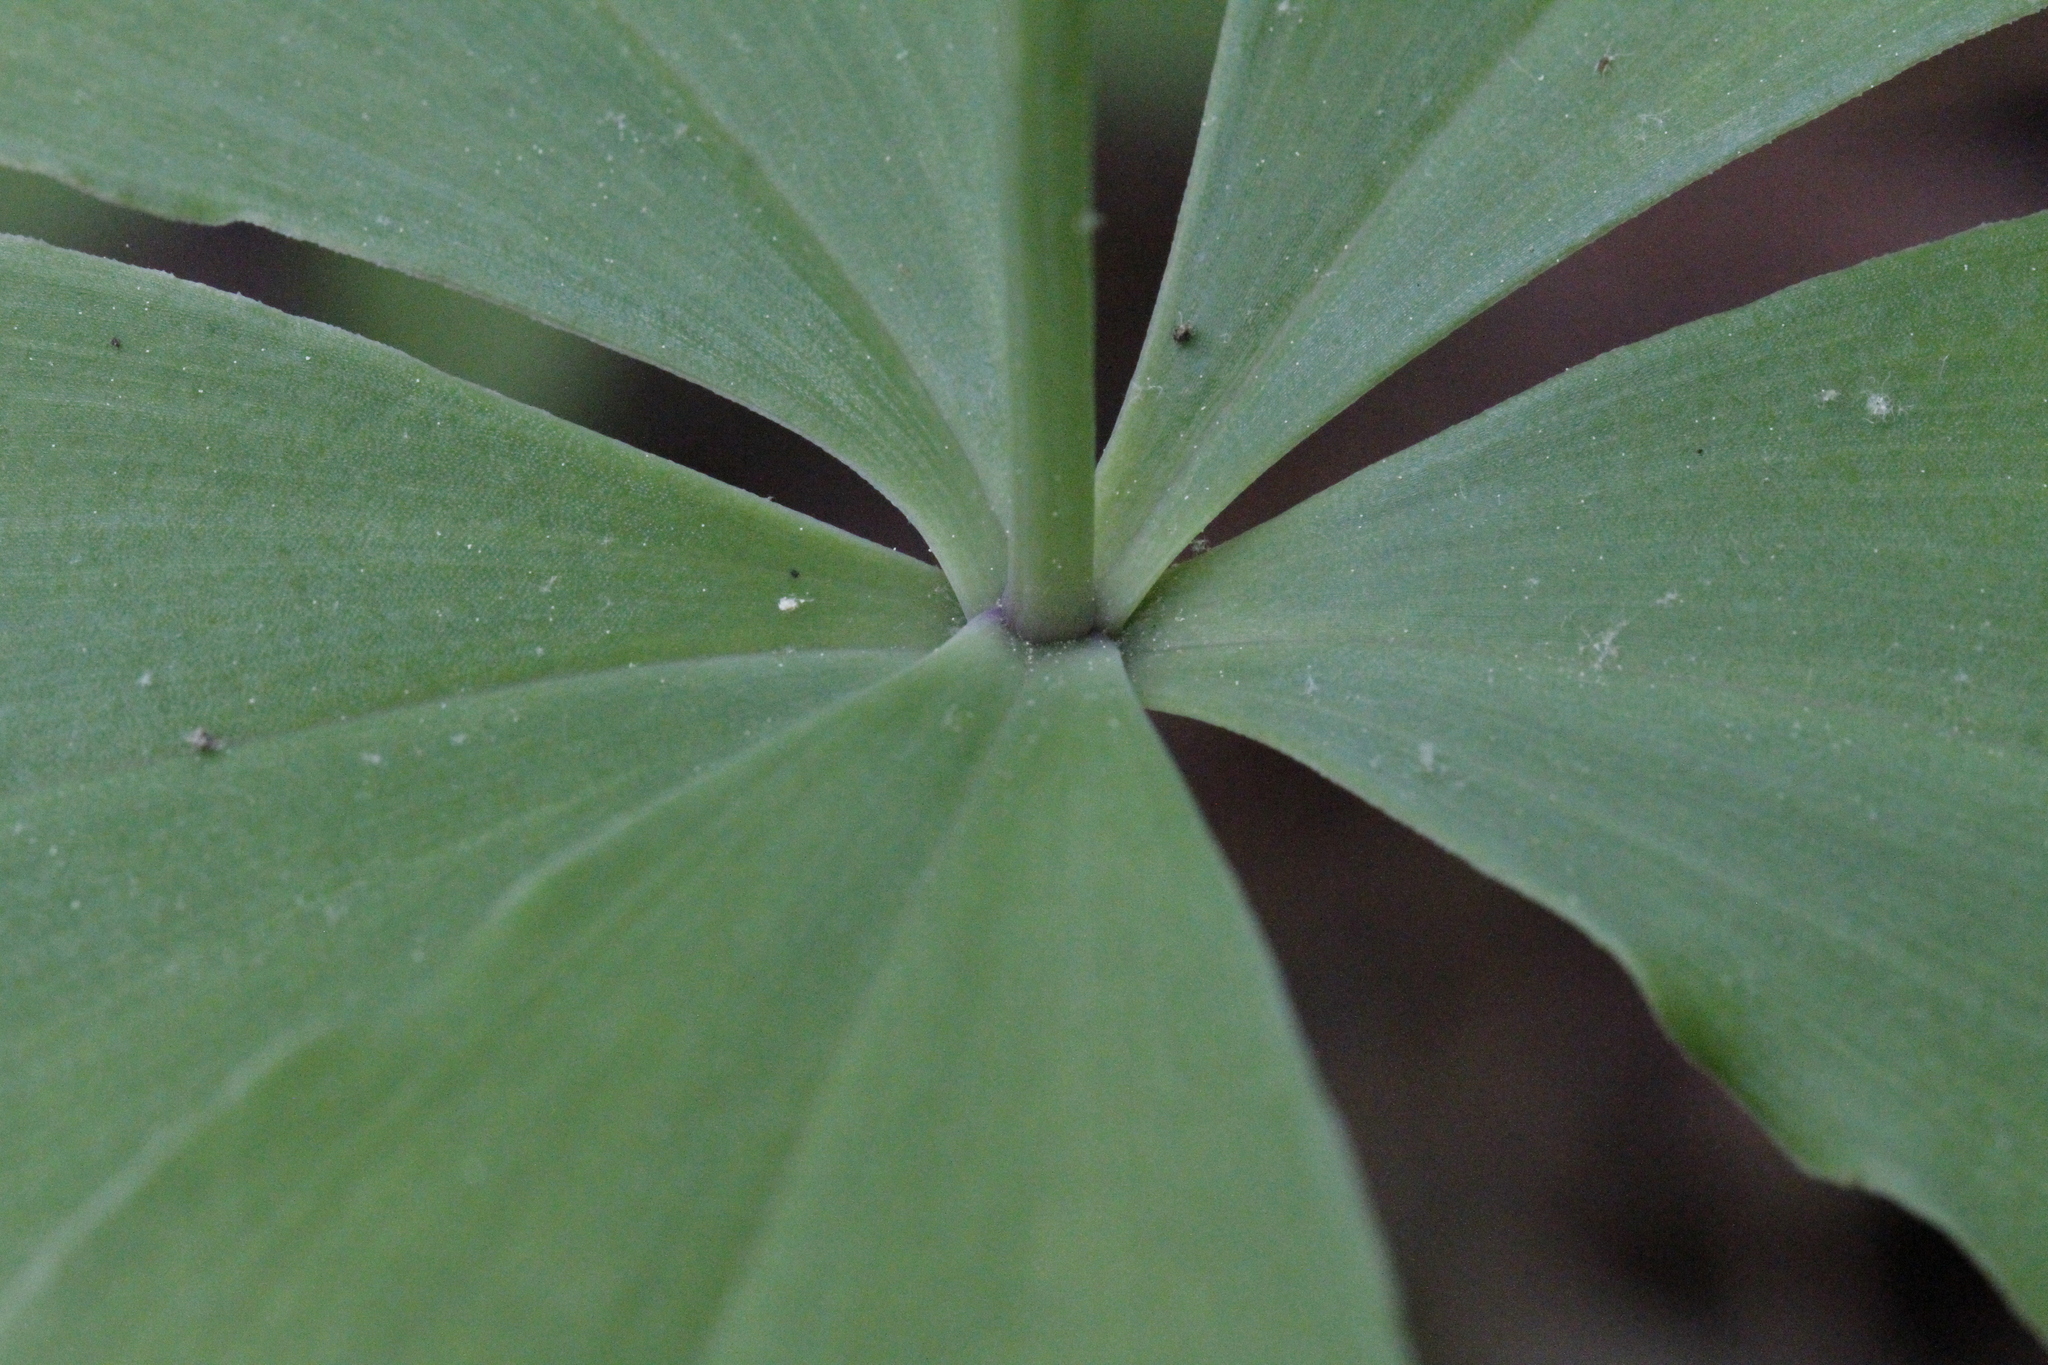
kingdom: Plantae
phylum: Tracheophyta
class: Liliopsida
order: Asparagales
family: Orchidaceae
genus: Isotria
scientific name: Isotria verticillata
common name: Large whorled pogonia
